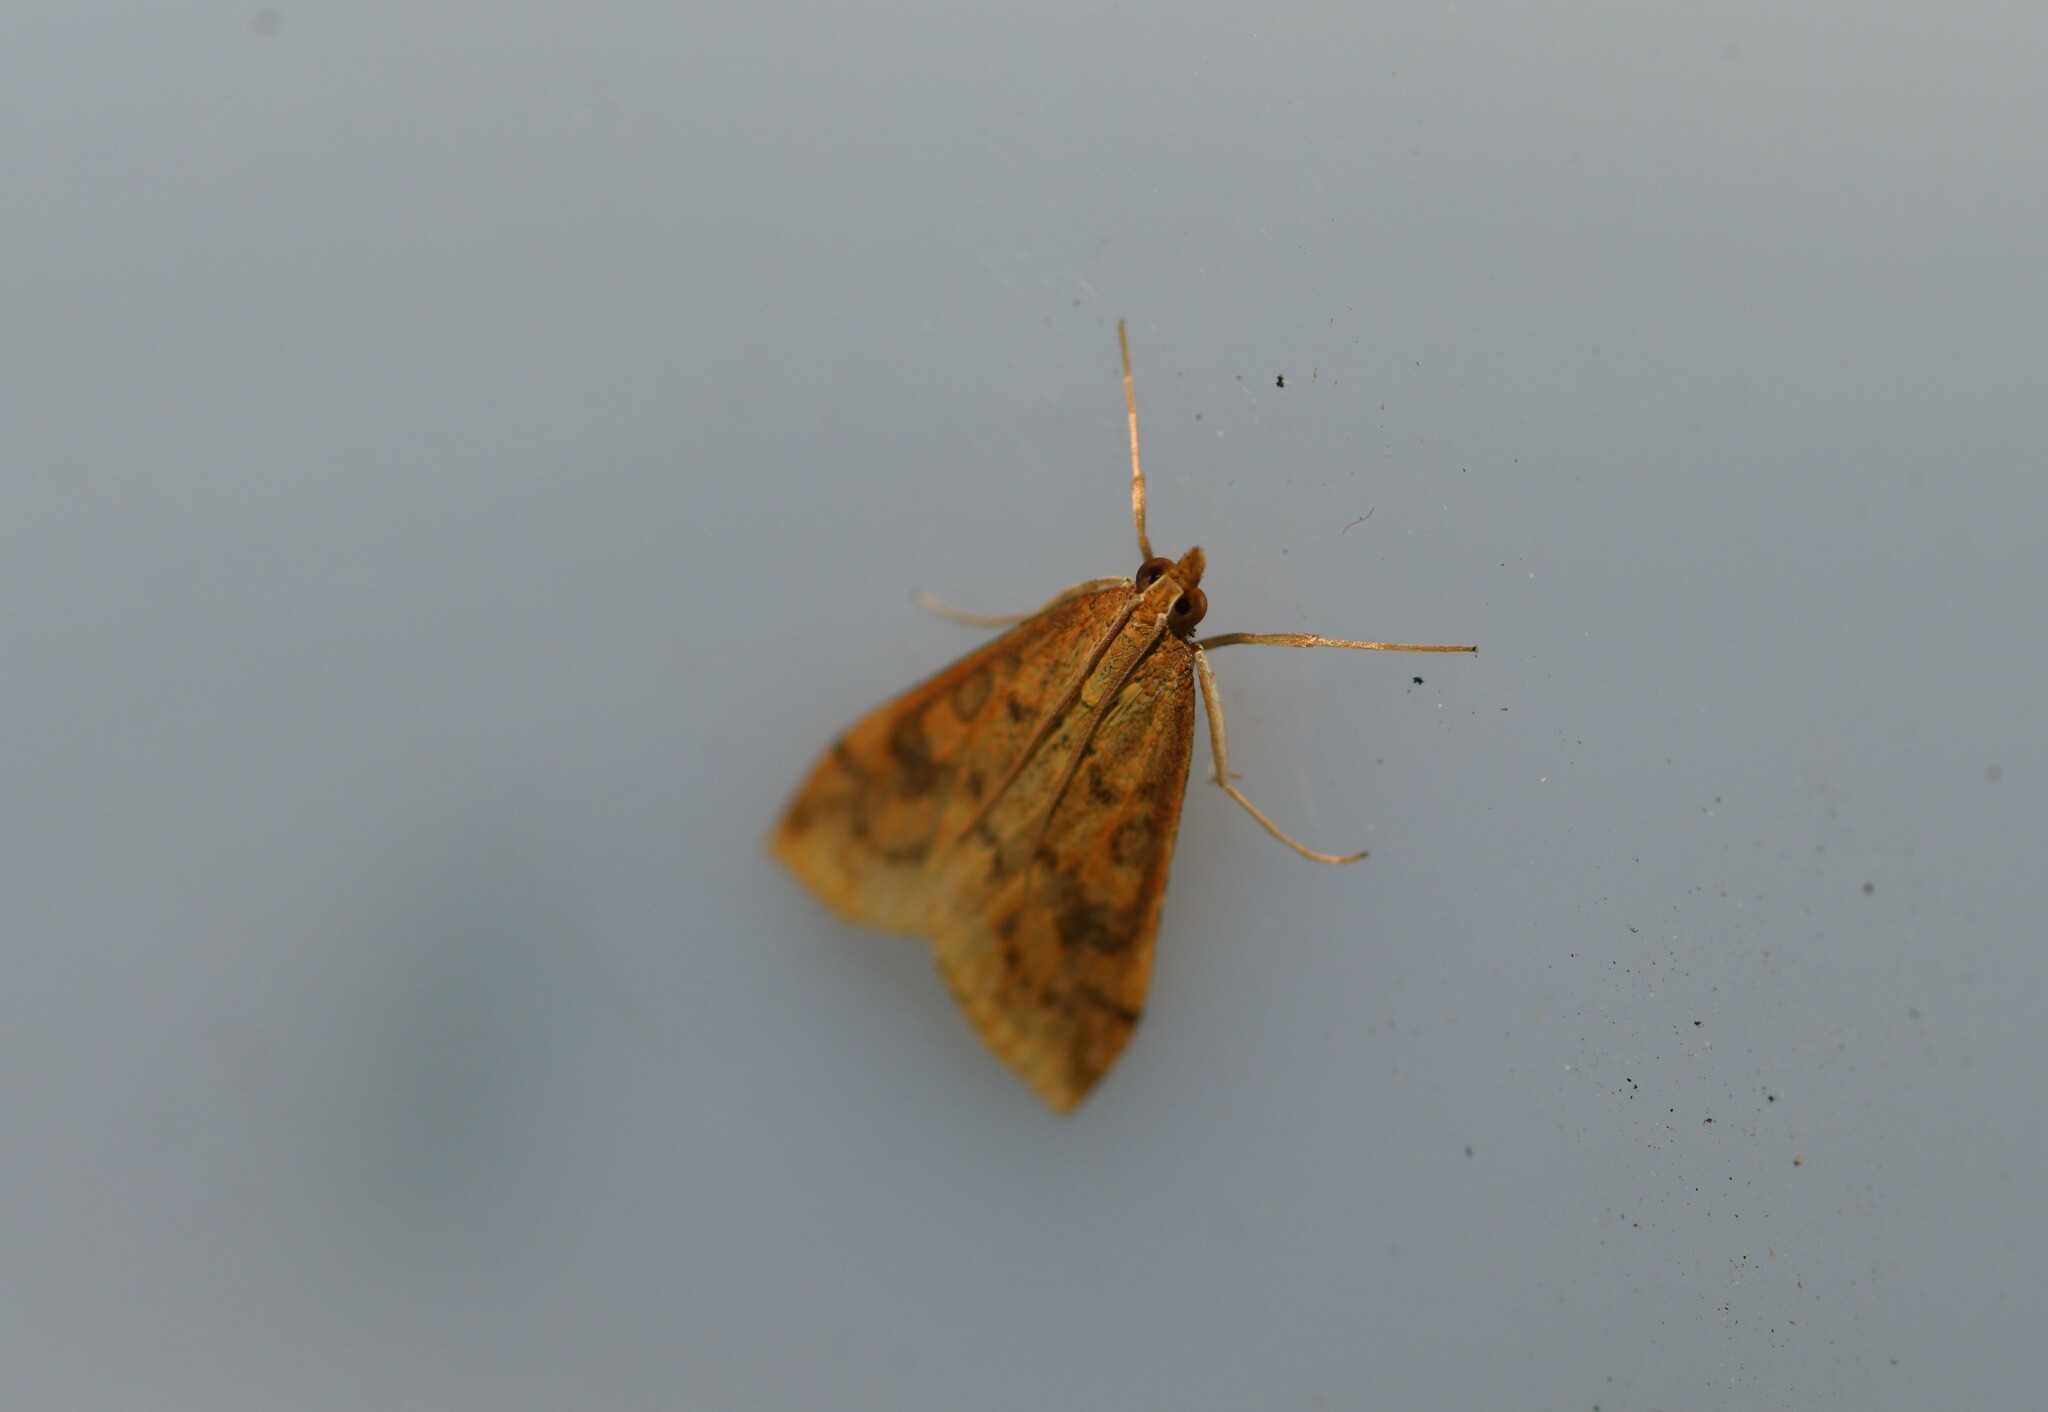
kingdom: Animalia
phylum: Arthropoda
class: Insecta
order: Lepidoptera
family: Crambidae
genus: Udea
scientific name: Udea ferrugalis
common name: Rusty dot
